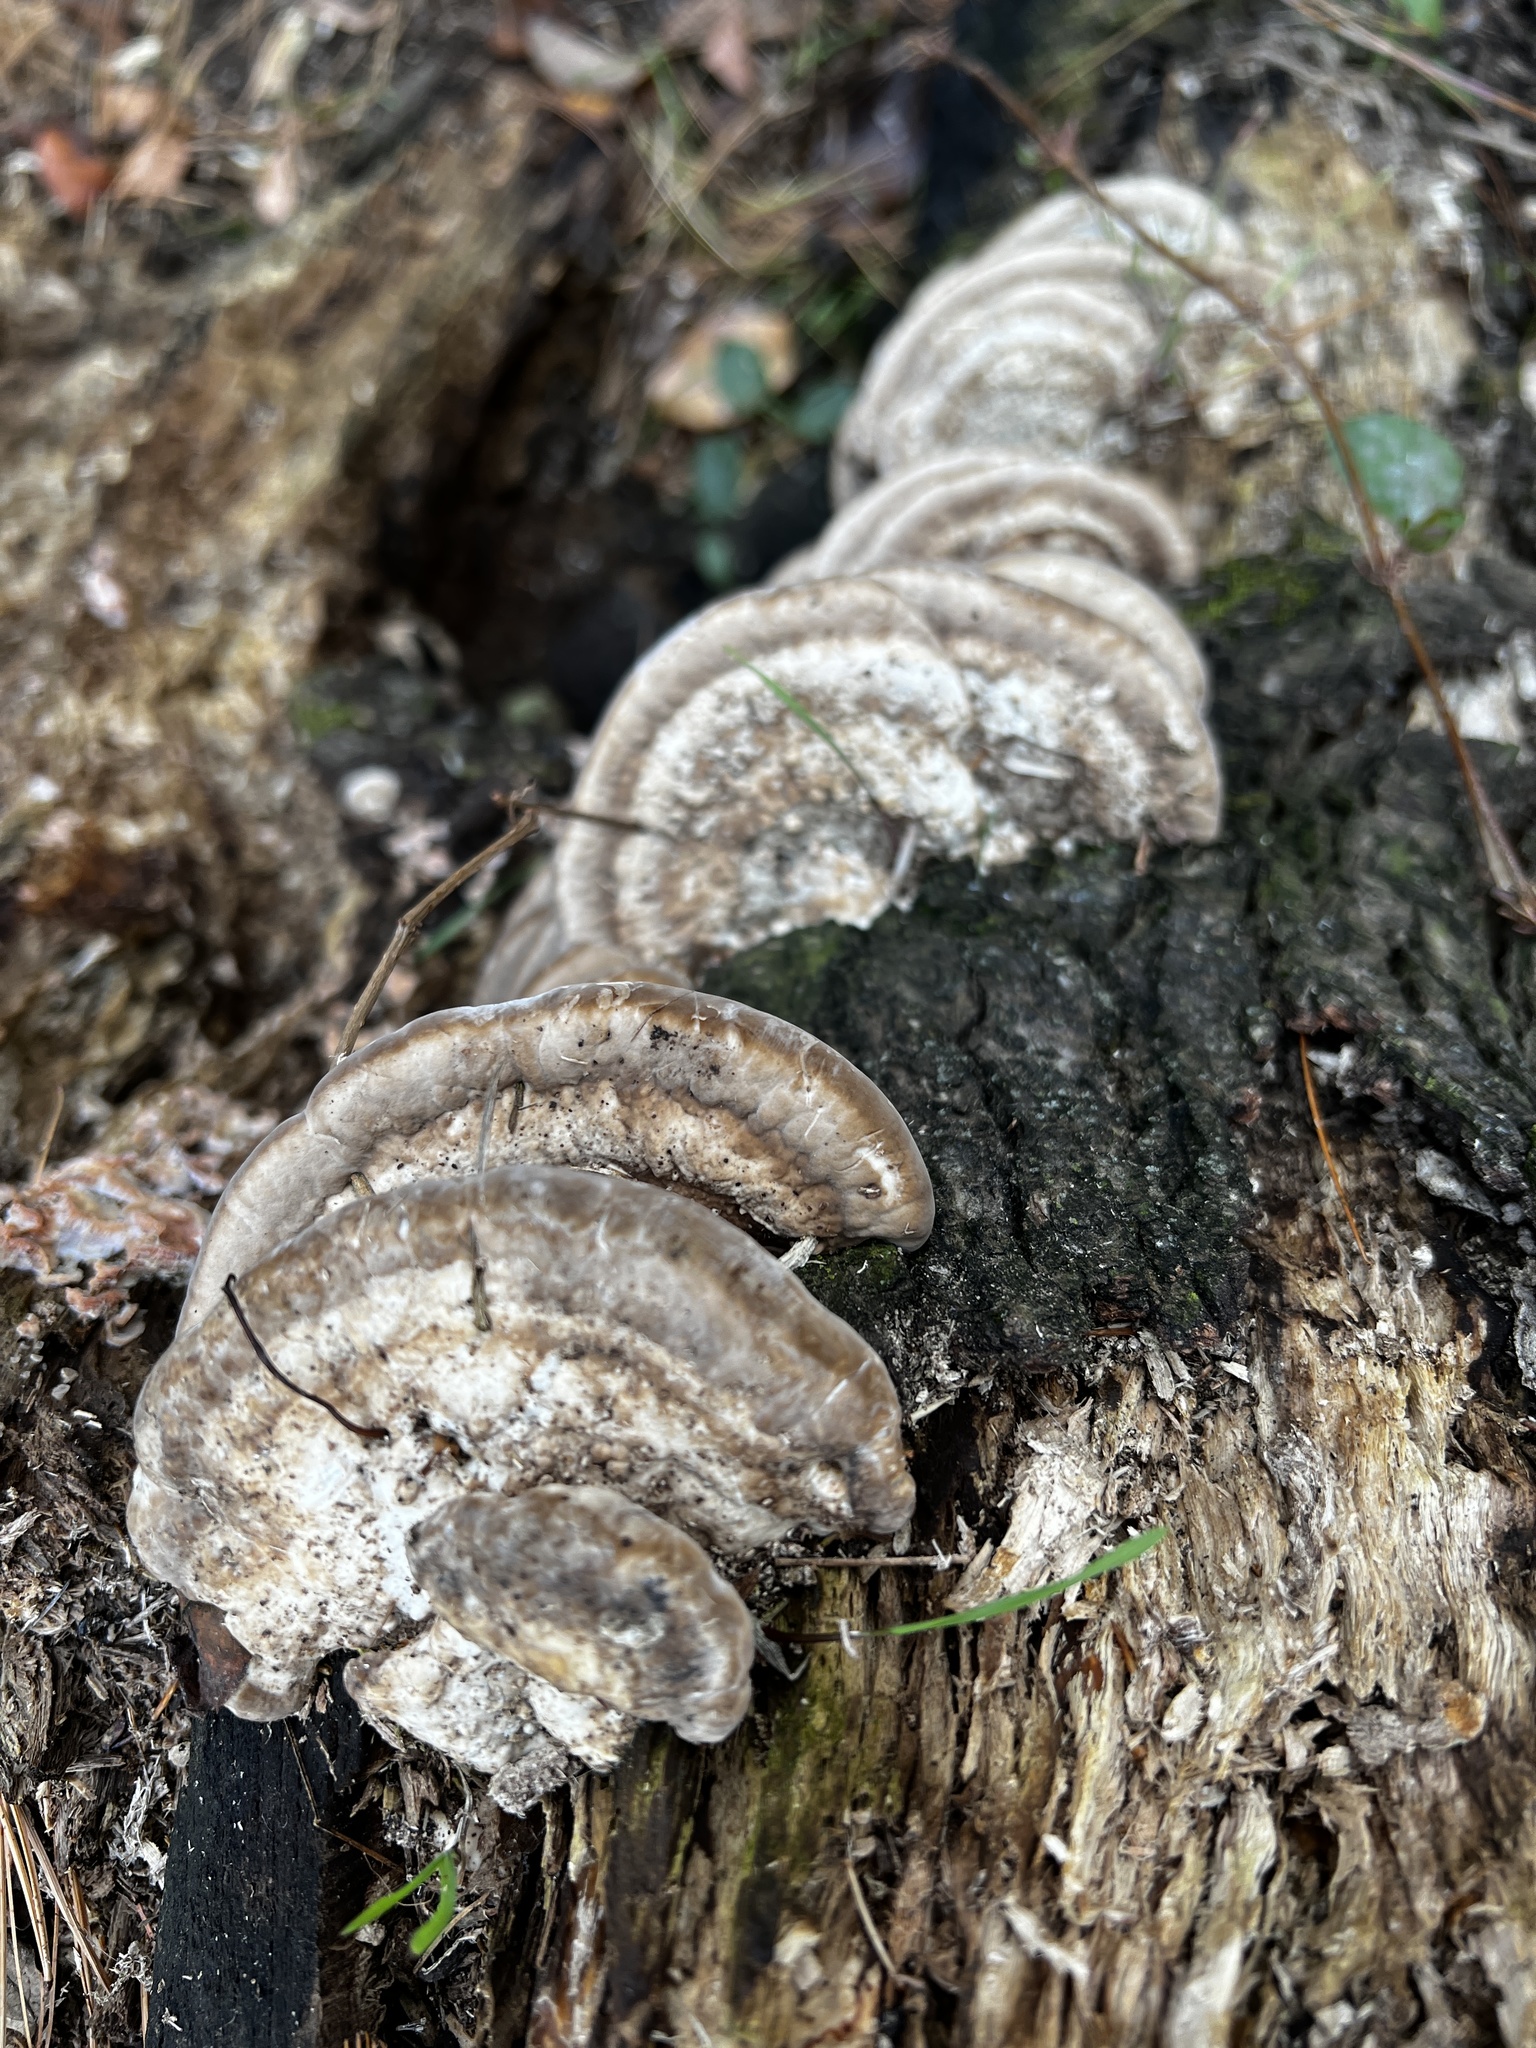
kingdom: Fungi
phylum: Basidiomycota
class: Agaricomycetes
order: Polyporales
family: Polyporaceae
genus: Trametes
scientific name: Trametes lactinea
